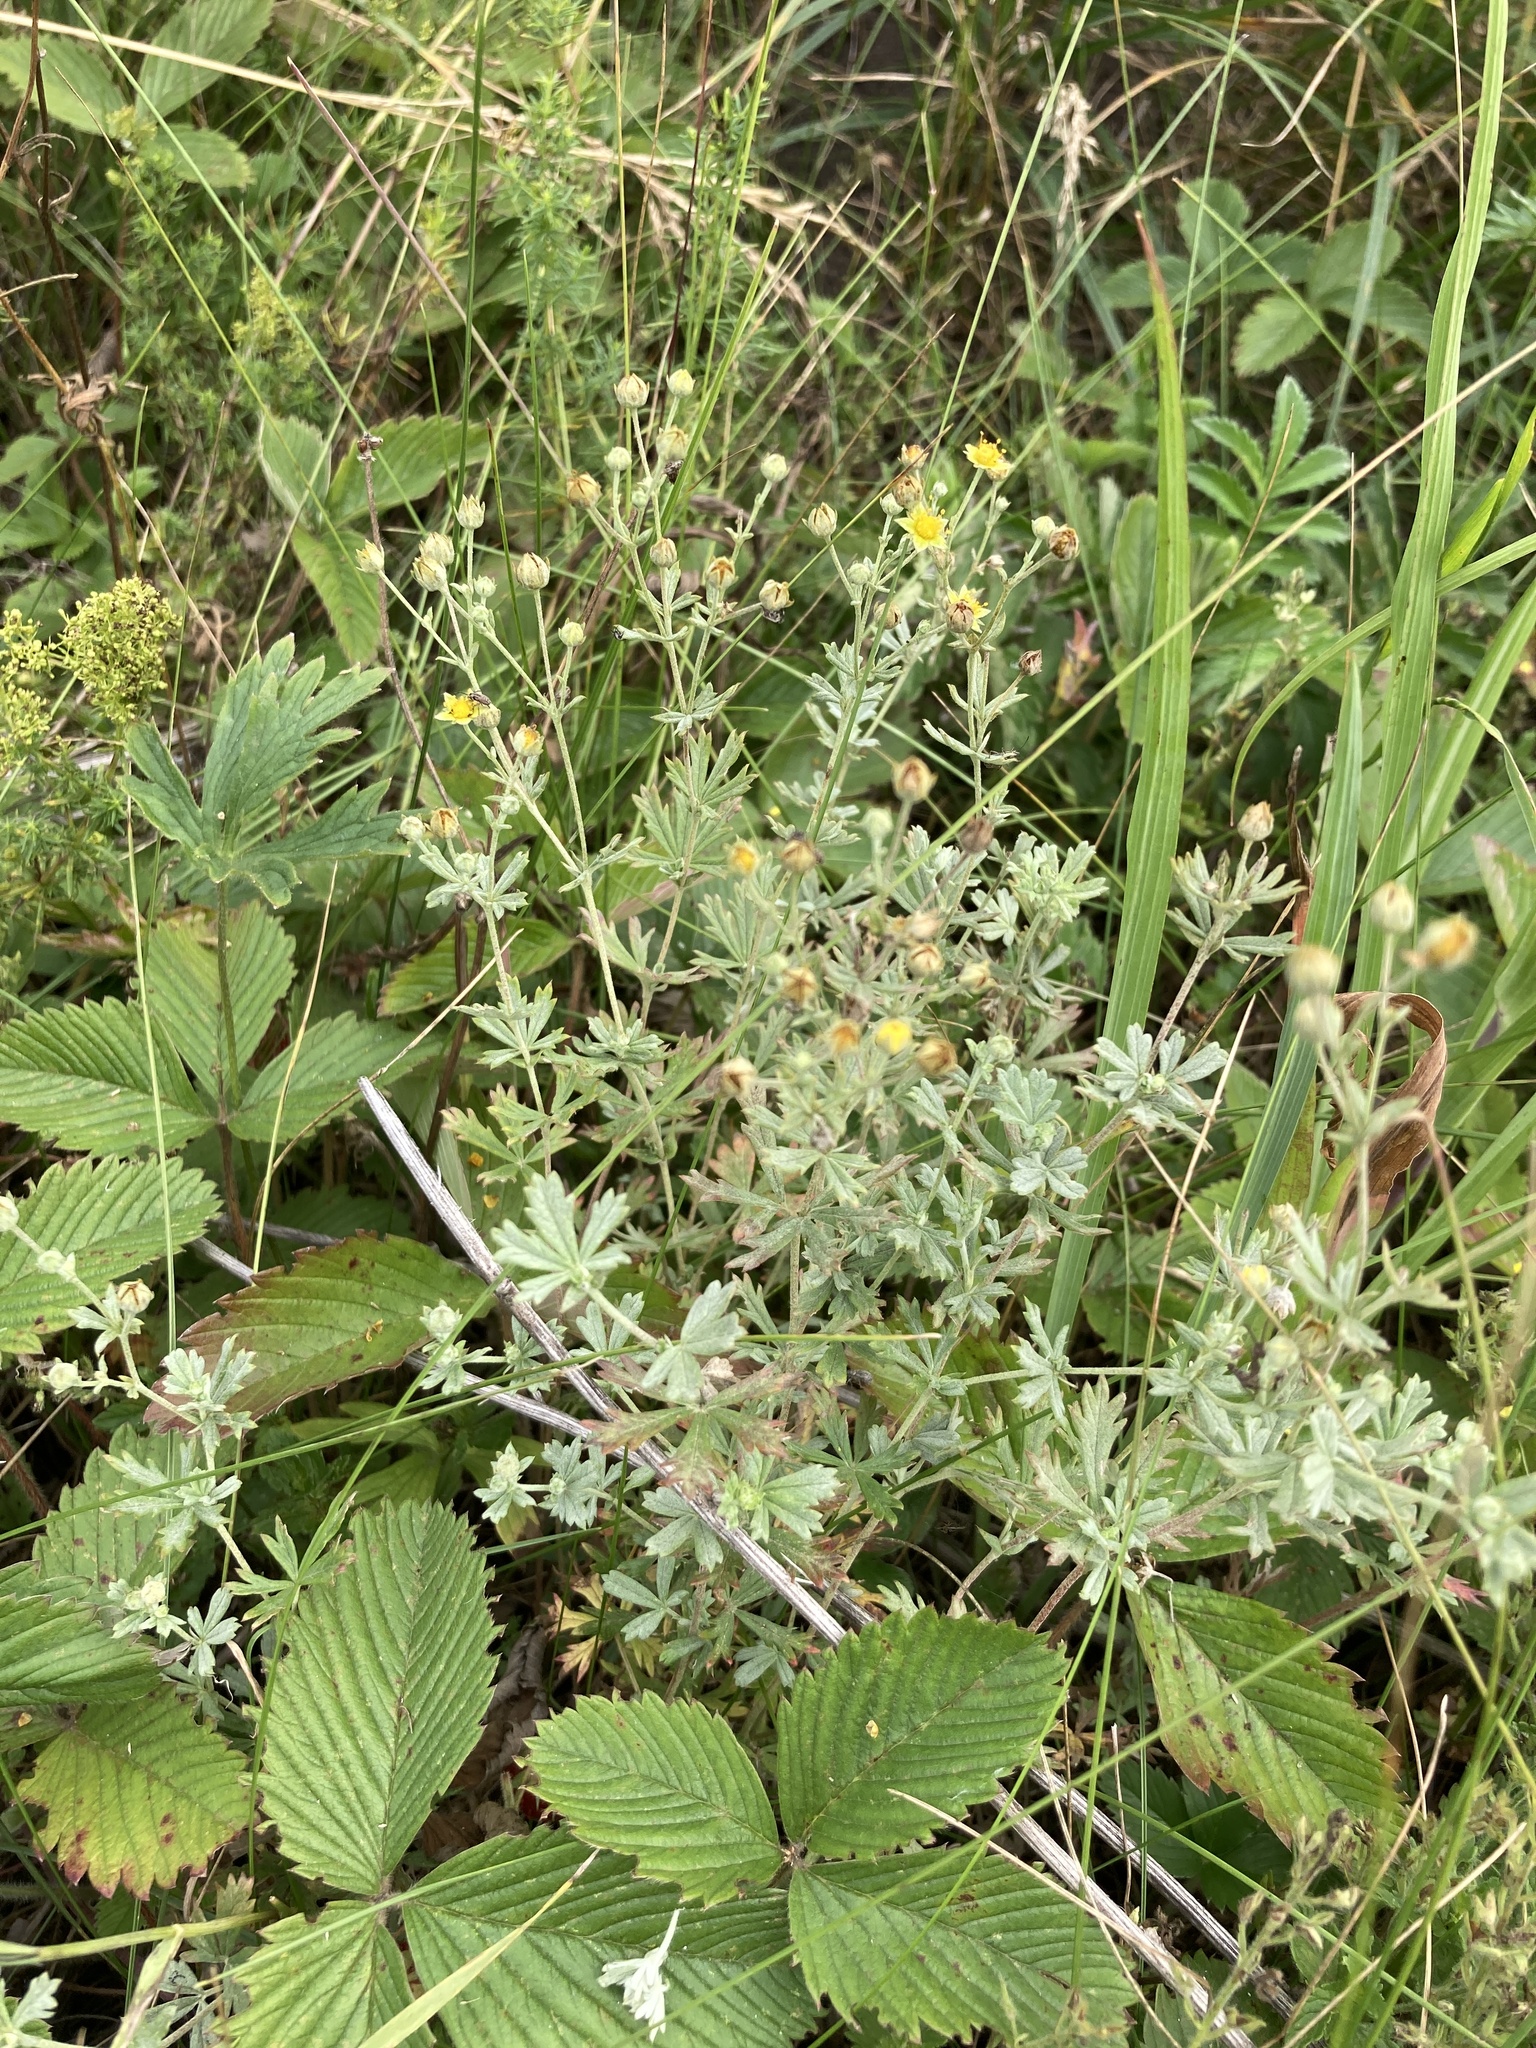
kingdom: Plantae
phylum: Tracheophyta
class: Magnoliopsida
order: Rosales
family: Rosaceae
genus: Potentilla
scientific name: Potentilla argentea
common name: Hoary cinquefoil
